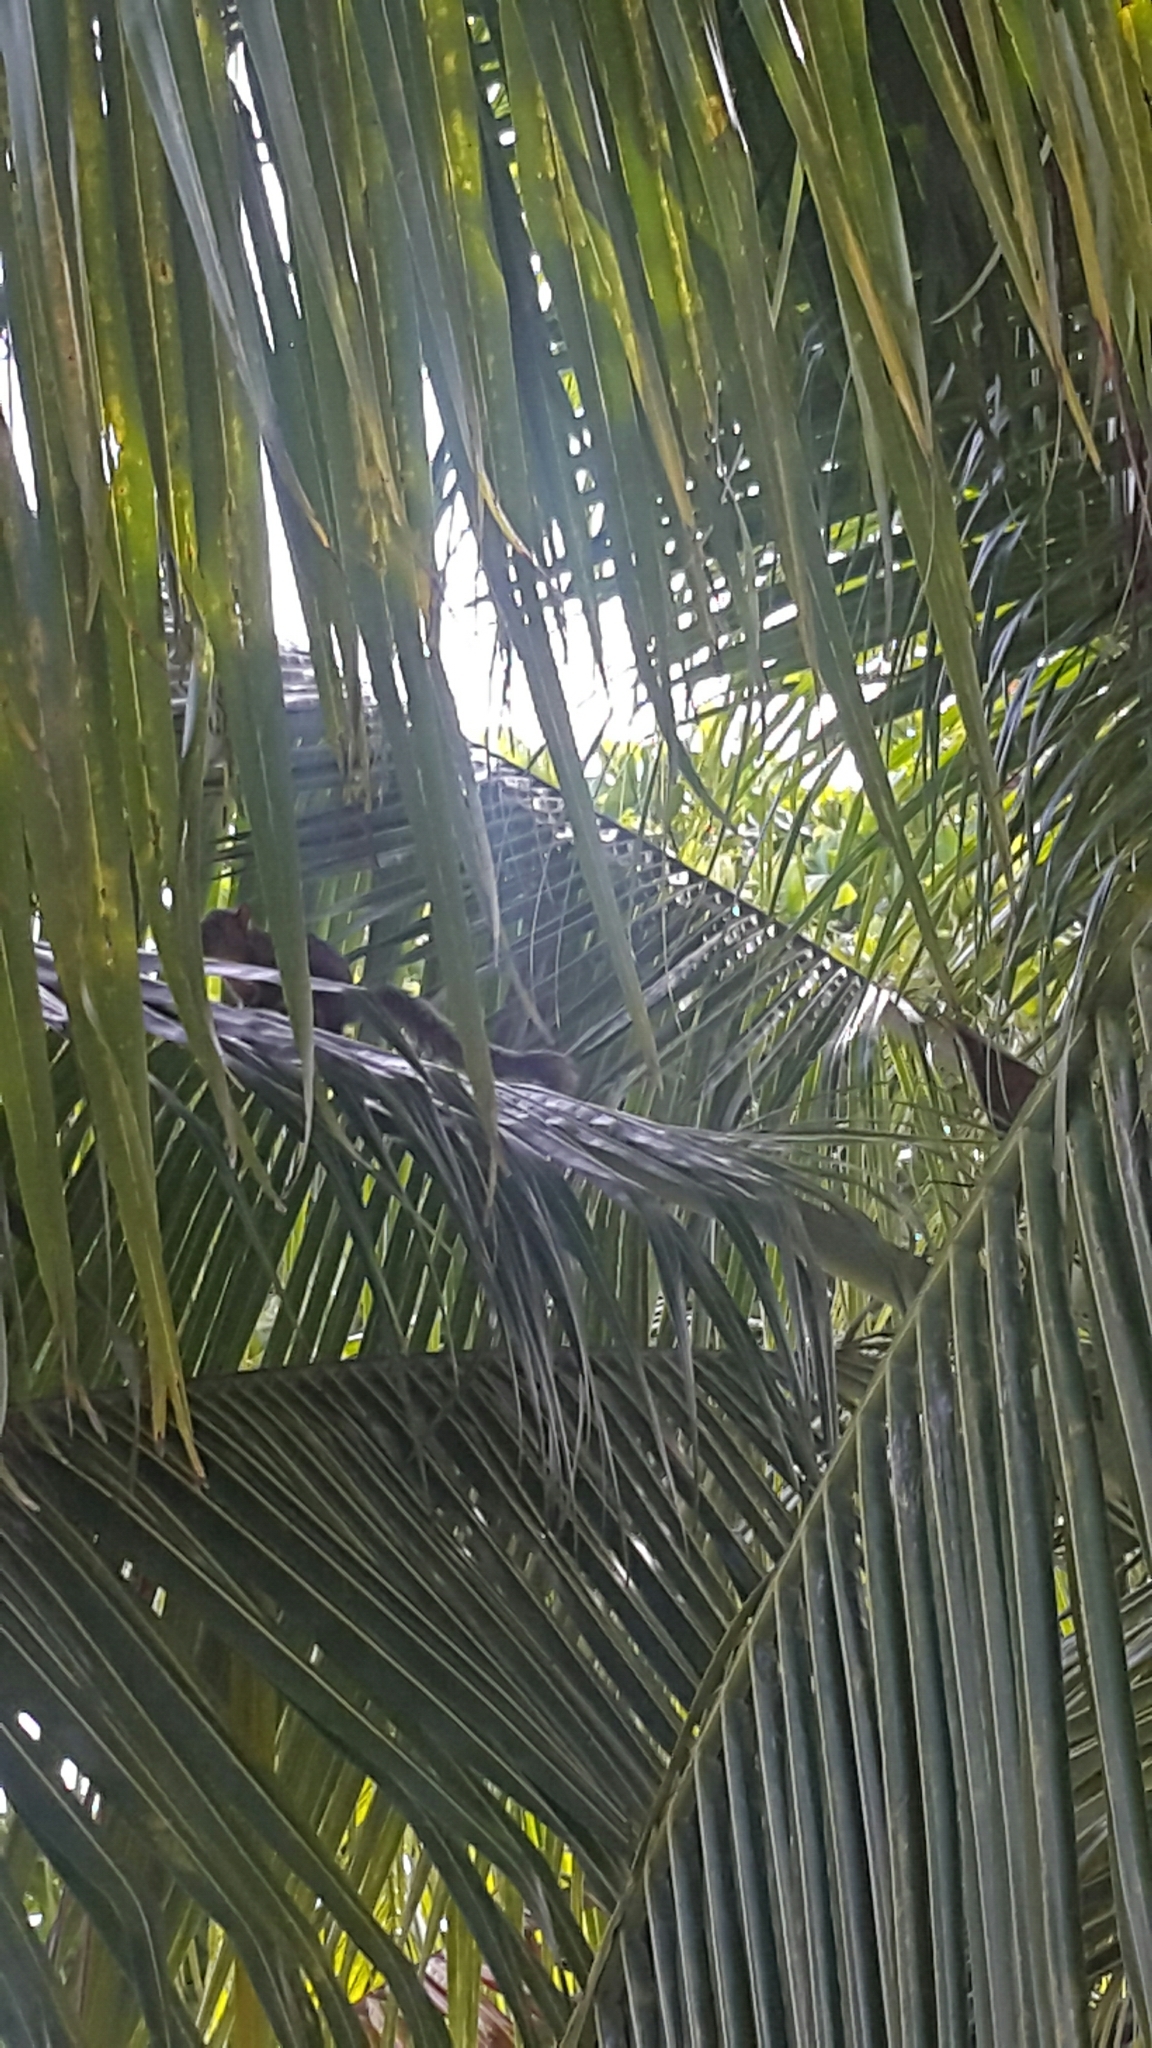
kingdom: Animalia
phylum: Chordata
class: Mammalia
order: Rodentia
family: Sciuridae
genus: Sciurus
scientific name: Sciurus variegatoides
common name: Variegated squirrel
